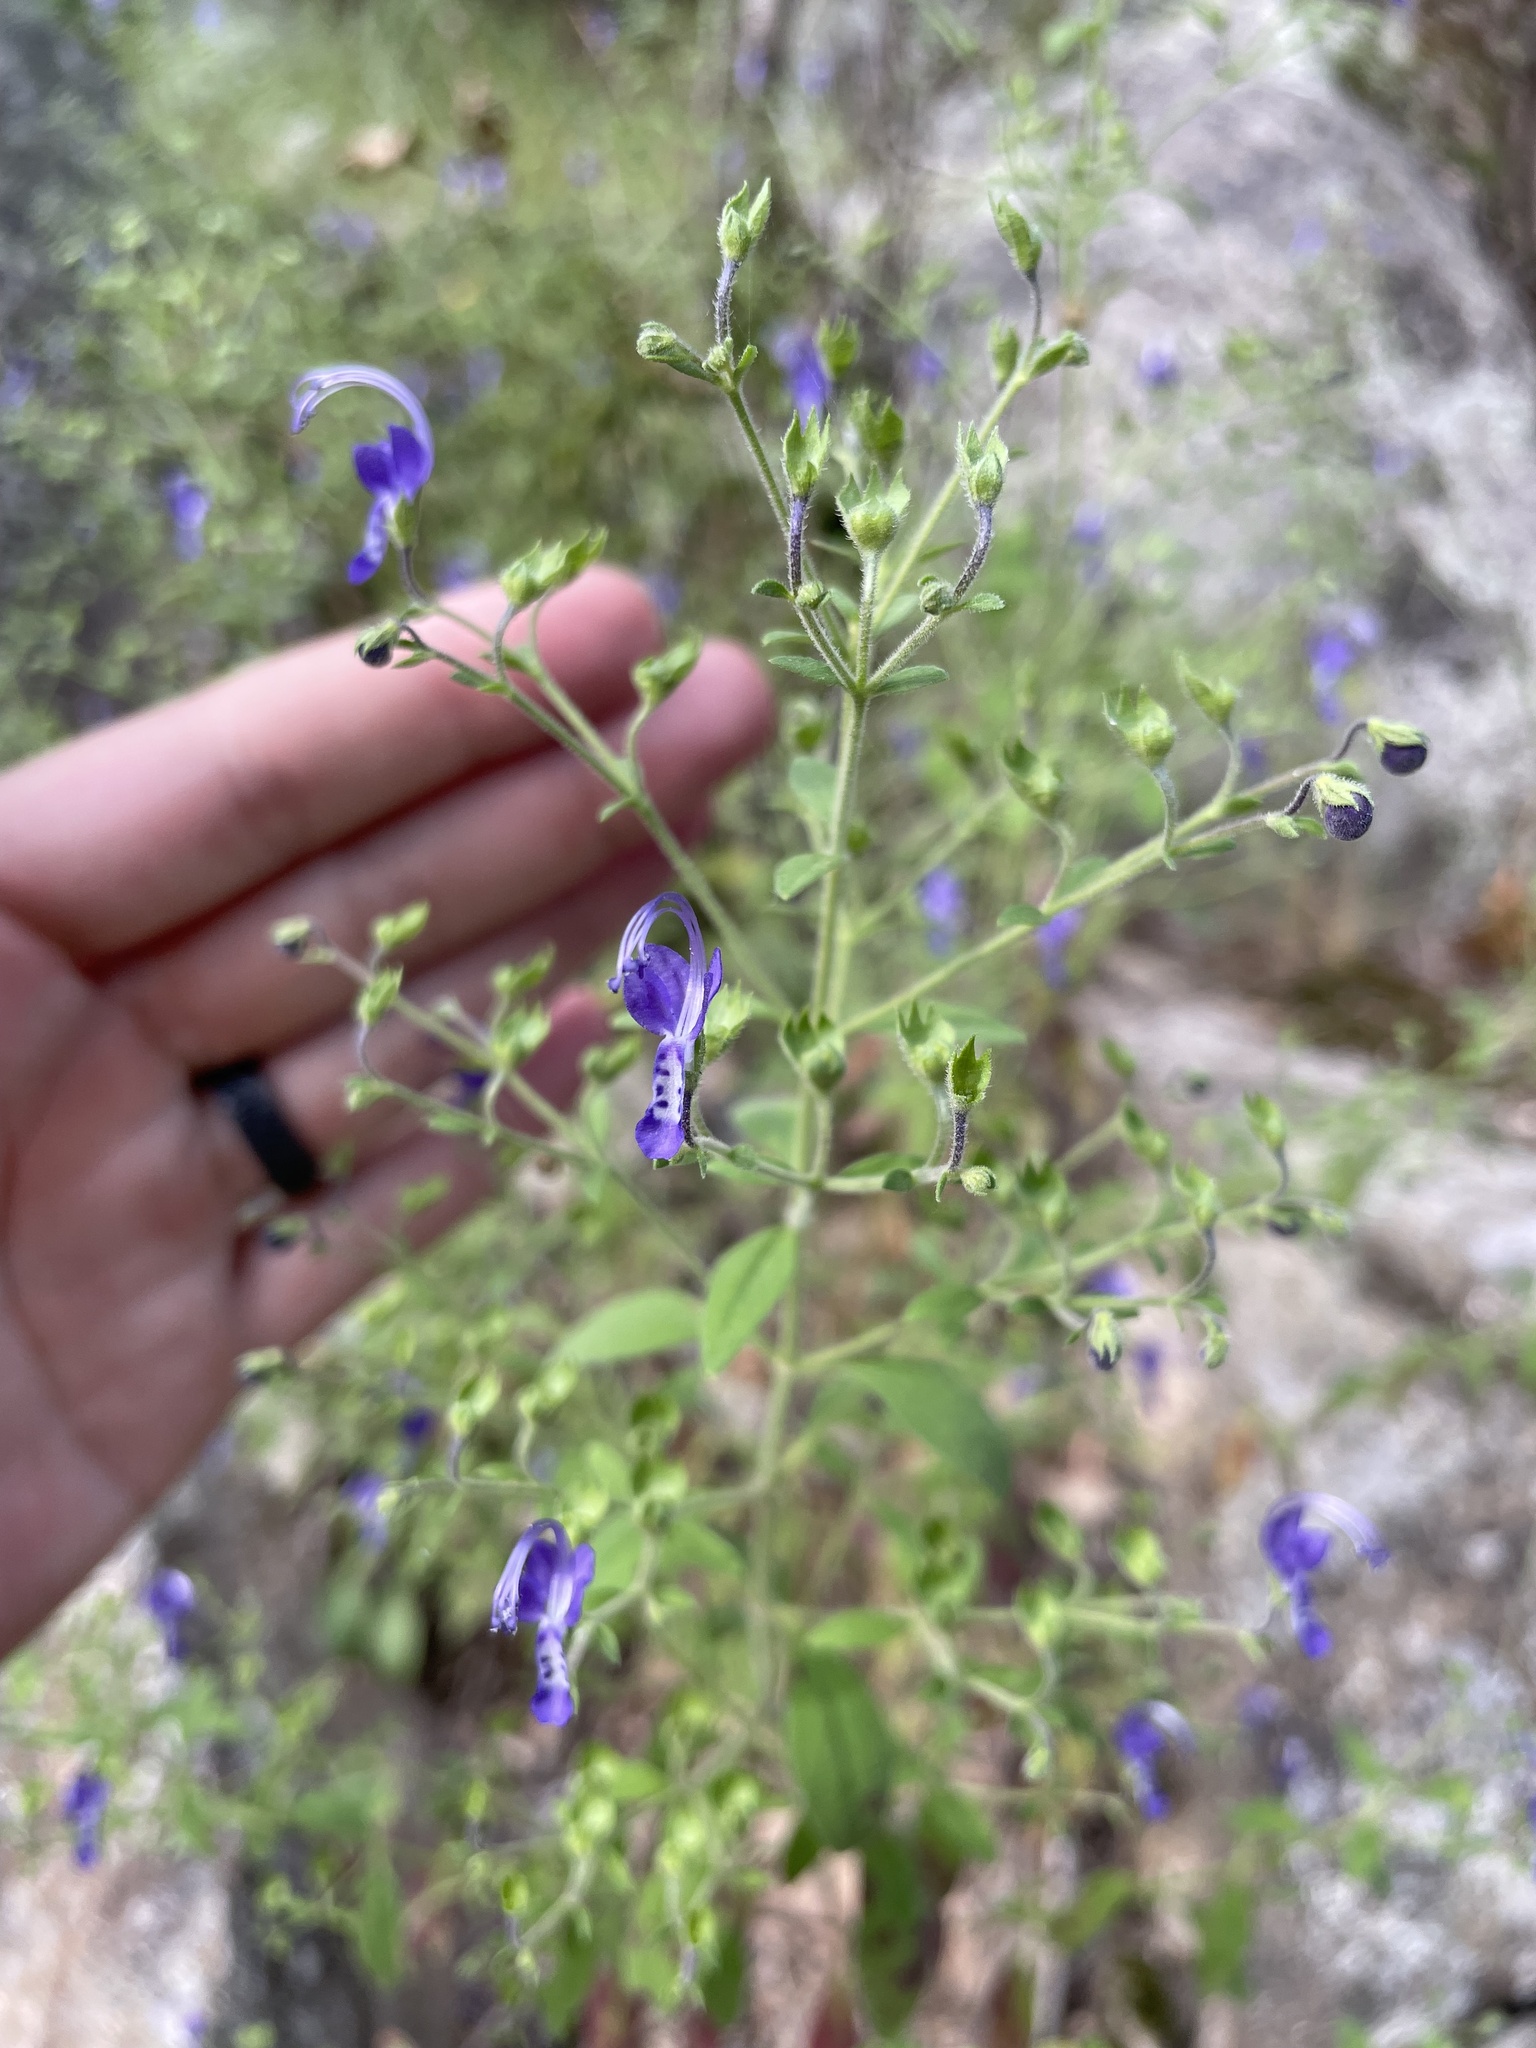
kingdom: Plantae
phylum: Tracheophyta
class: Magnoliopsida
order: Lamiales
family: Lamiaceae
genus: Trichostema
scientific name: Trichostema dichotomum
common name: Bastard pennyroyal
